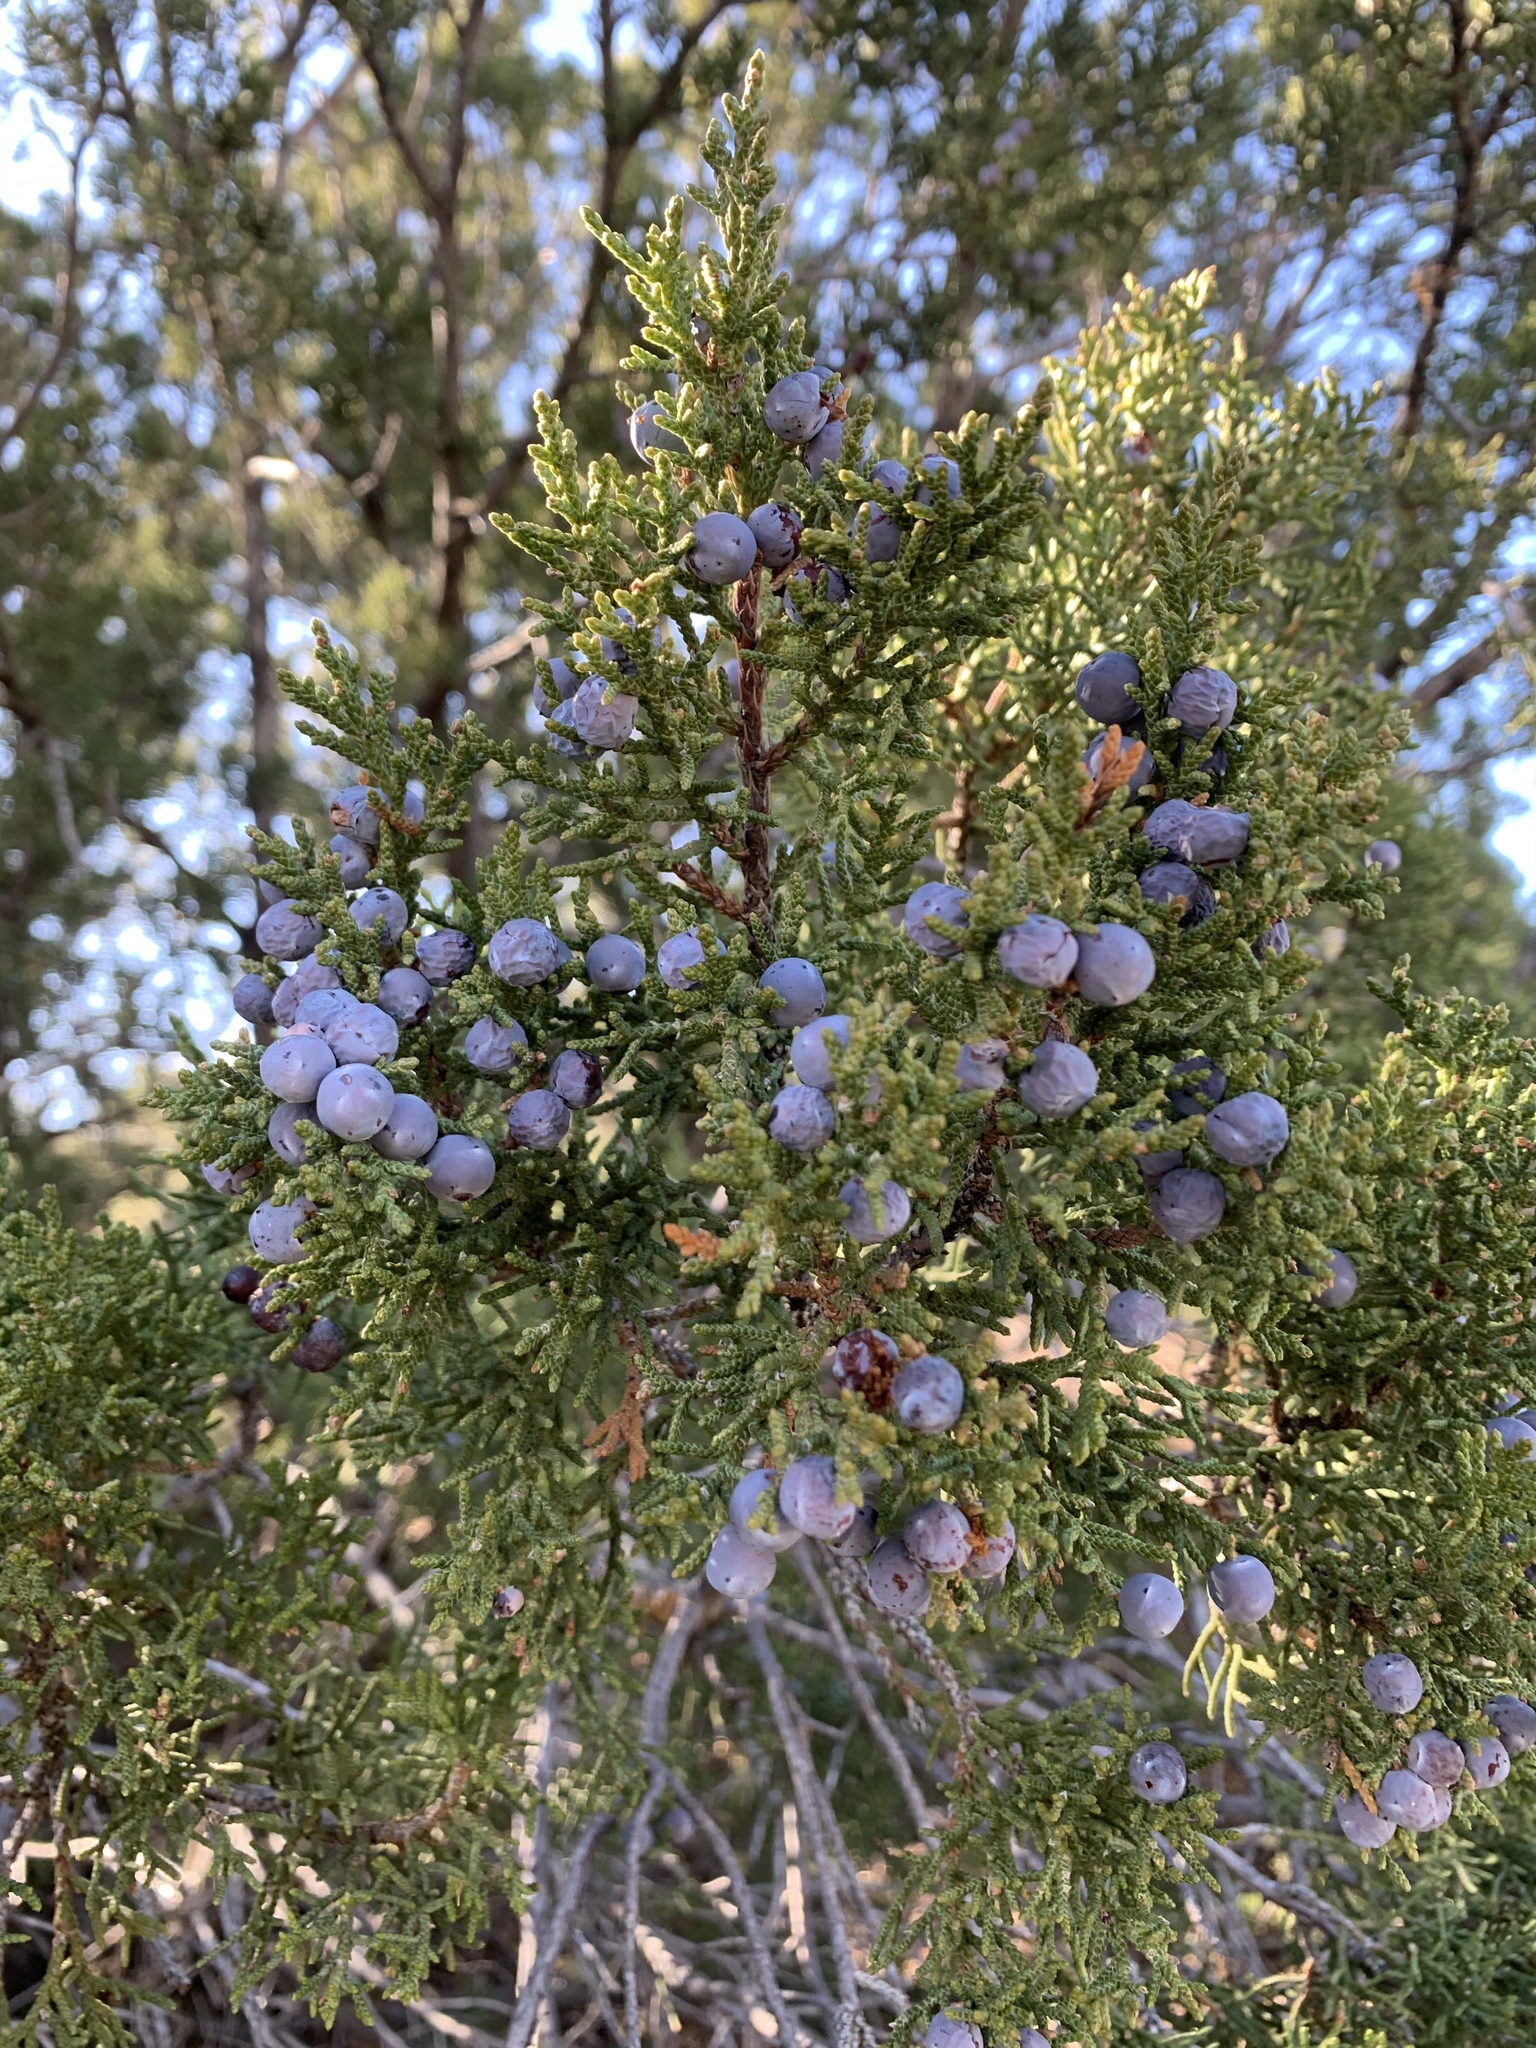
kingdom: Plantae
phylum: Tracheophyta
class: Pinopsida
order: Pinales
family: Cupressaceae
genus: Juniperus
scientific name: Juniperus monosperma
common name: One-seed juniper
